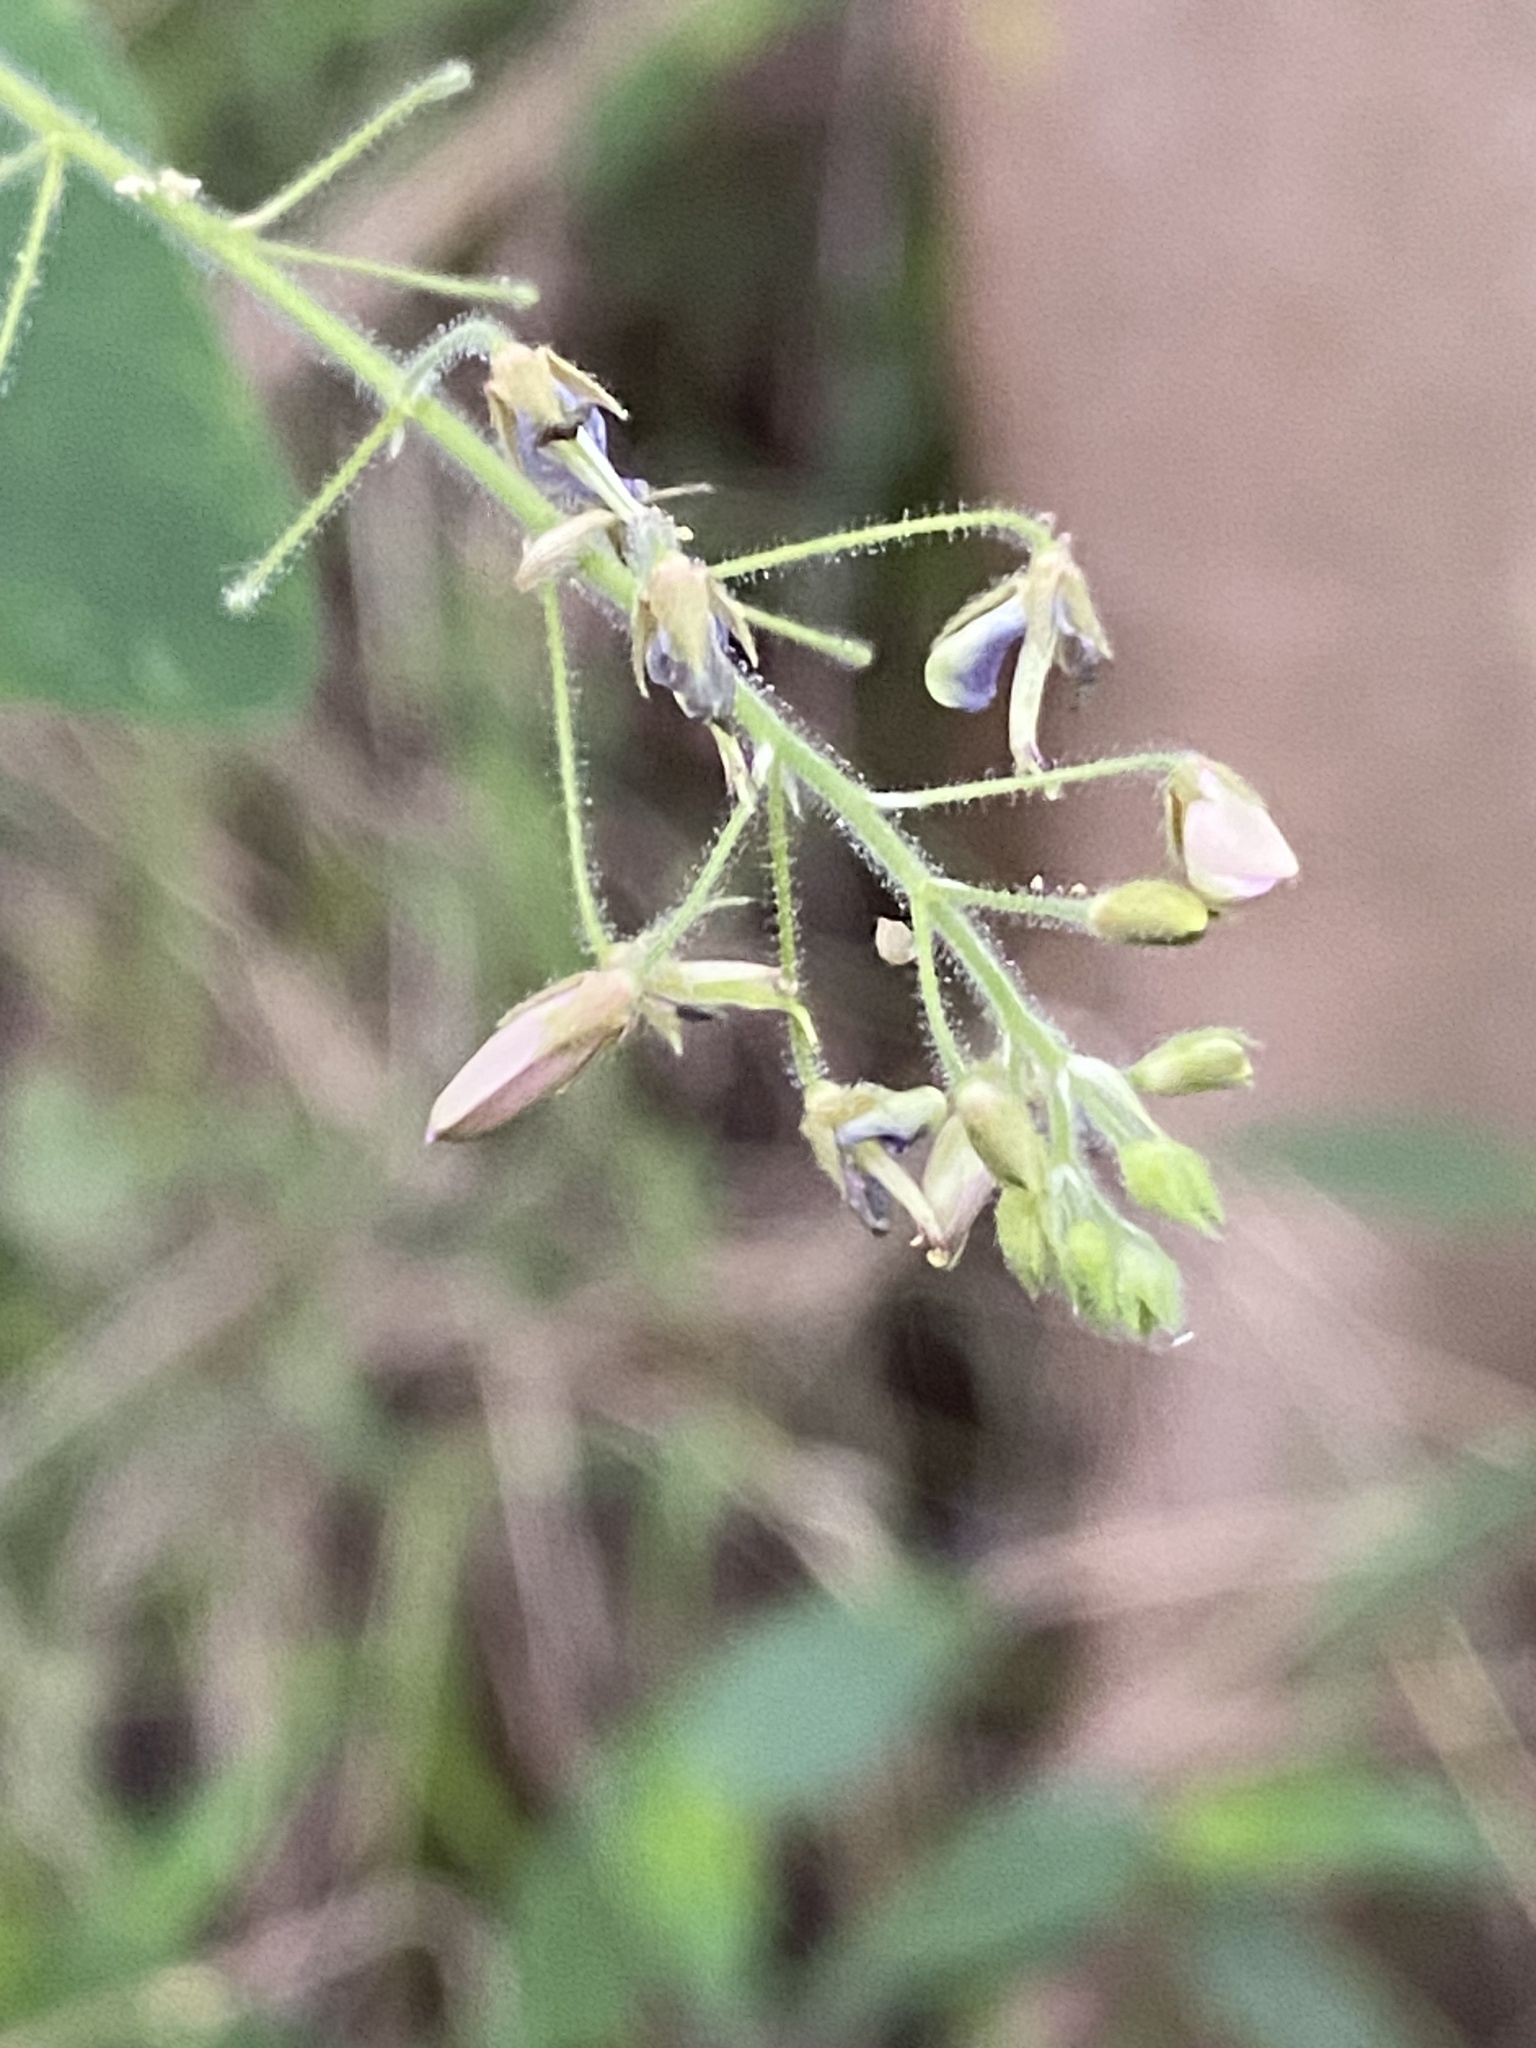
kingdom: Plantae
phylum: Tracheophyta
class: Magnoliopsida
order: Fabales
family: Fabaceae
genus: Desmodium
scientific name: Desmodium tortuosum
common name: Dixie ticktrefoil
